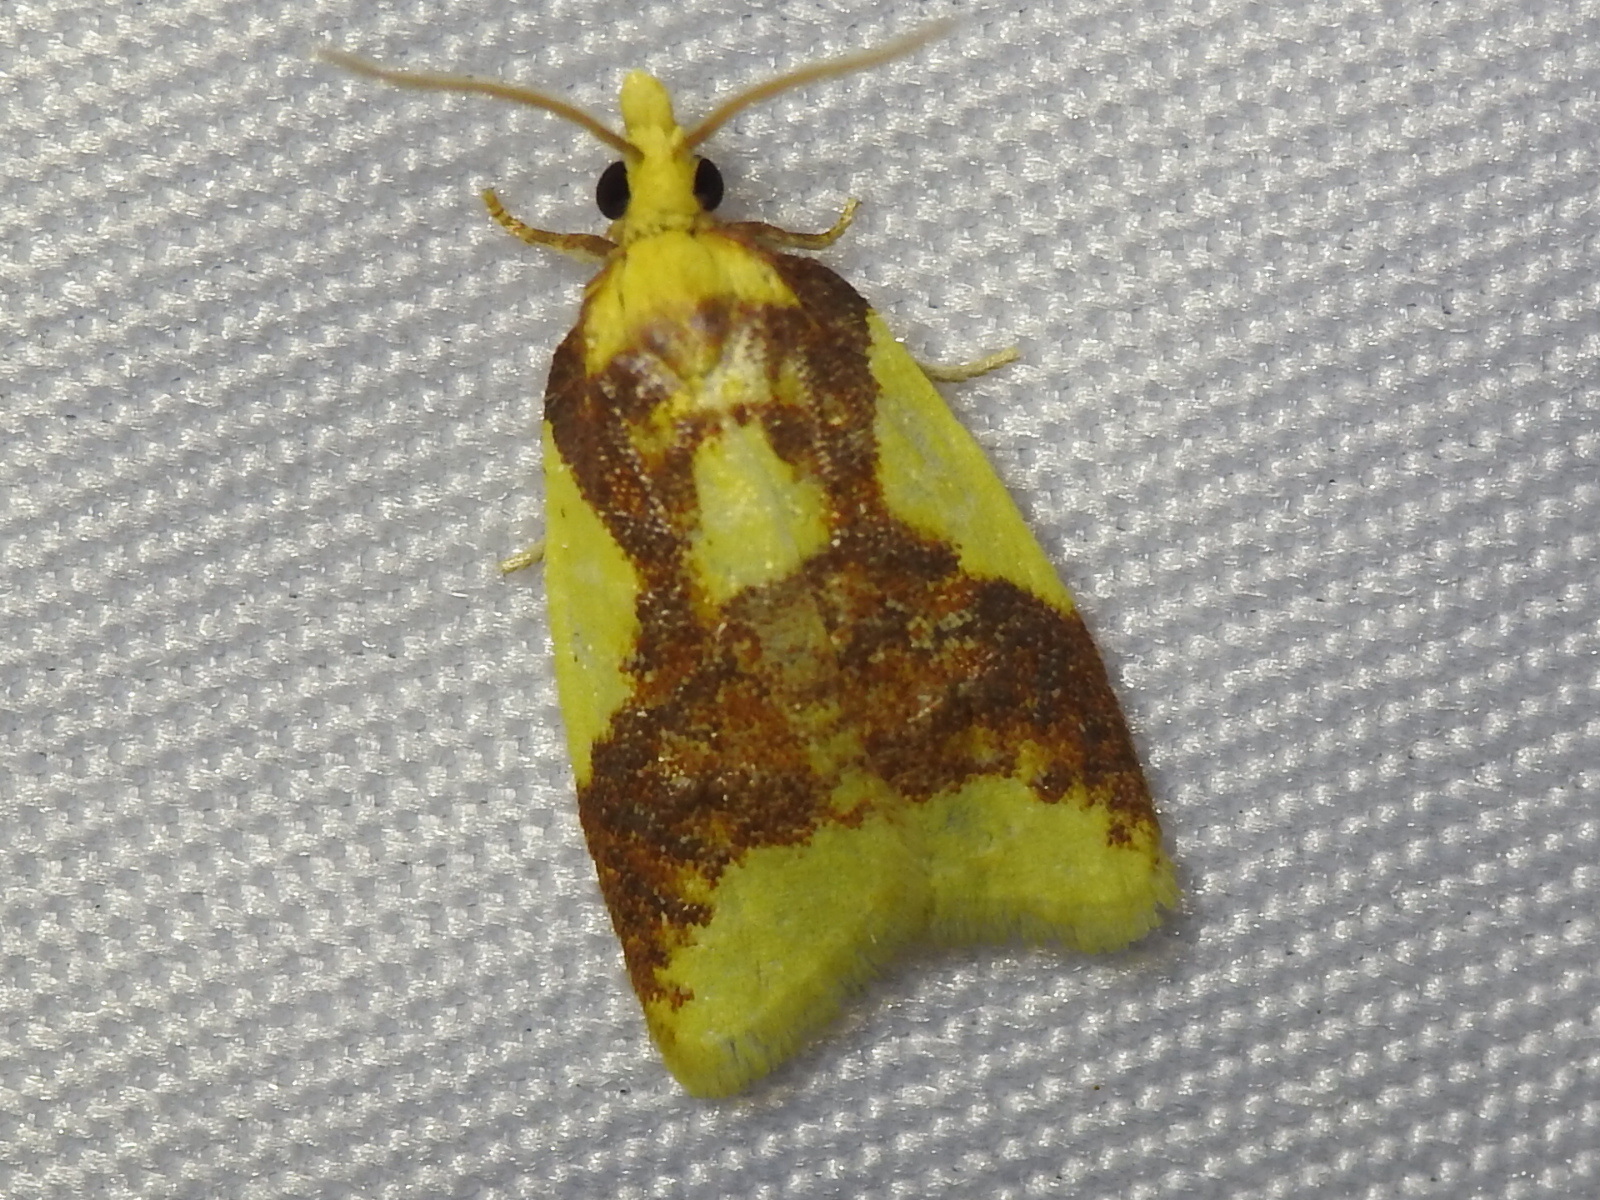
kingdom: Animalia
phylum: Arthropoda
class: Insecta
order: Lepidoptera
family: Tortricidae
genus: Sparganothis
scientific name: Sparganothis pulcherrimana
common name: Beautiful sparganothis
